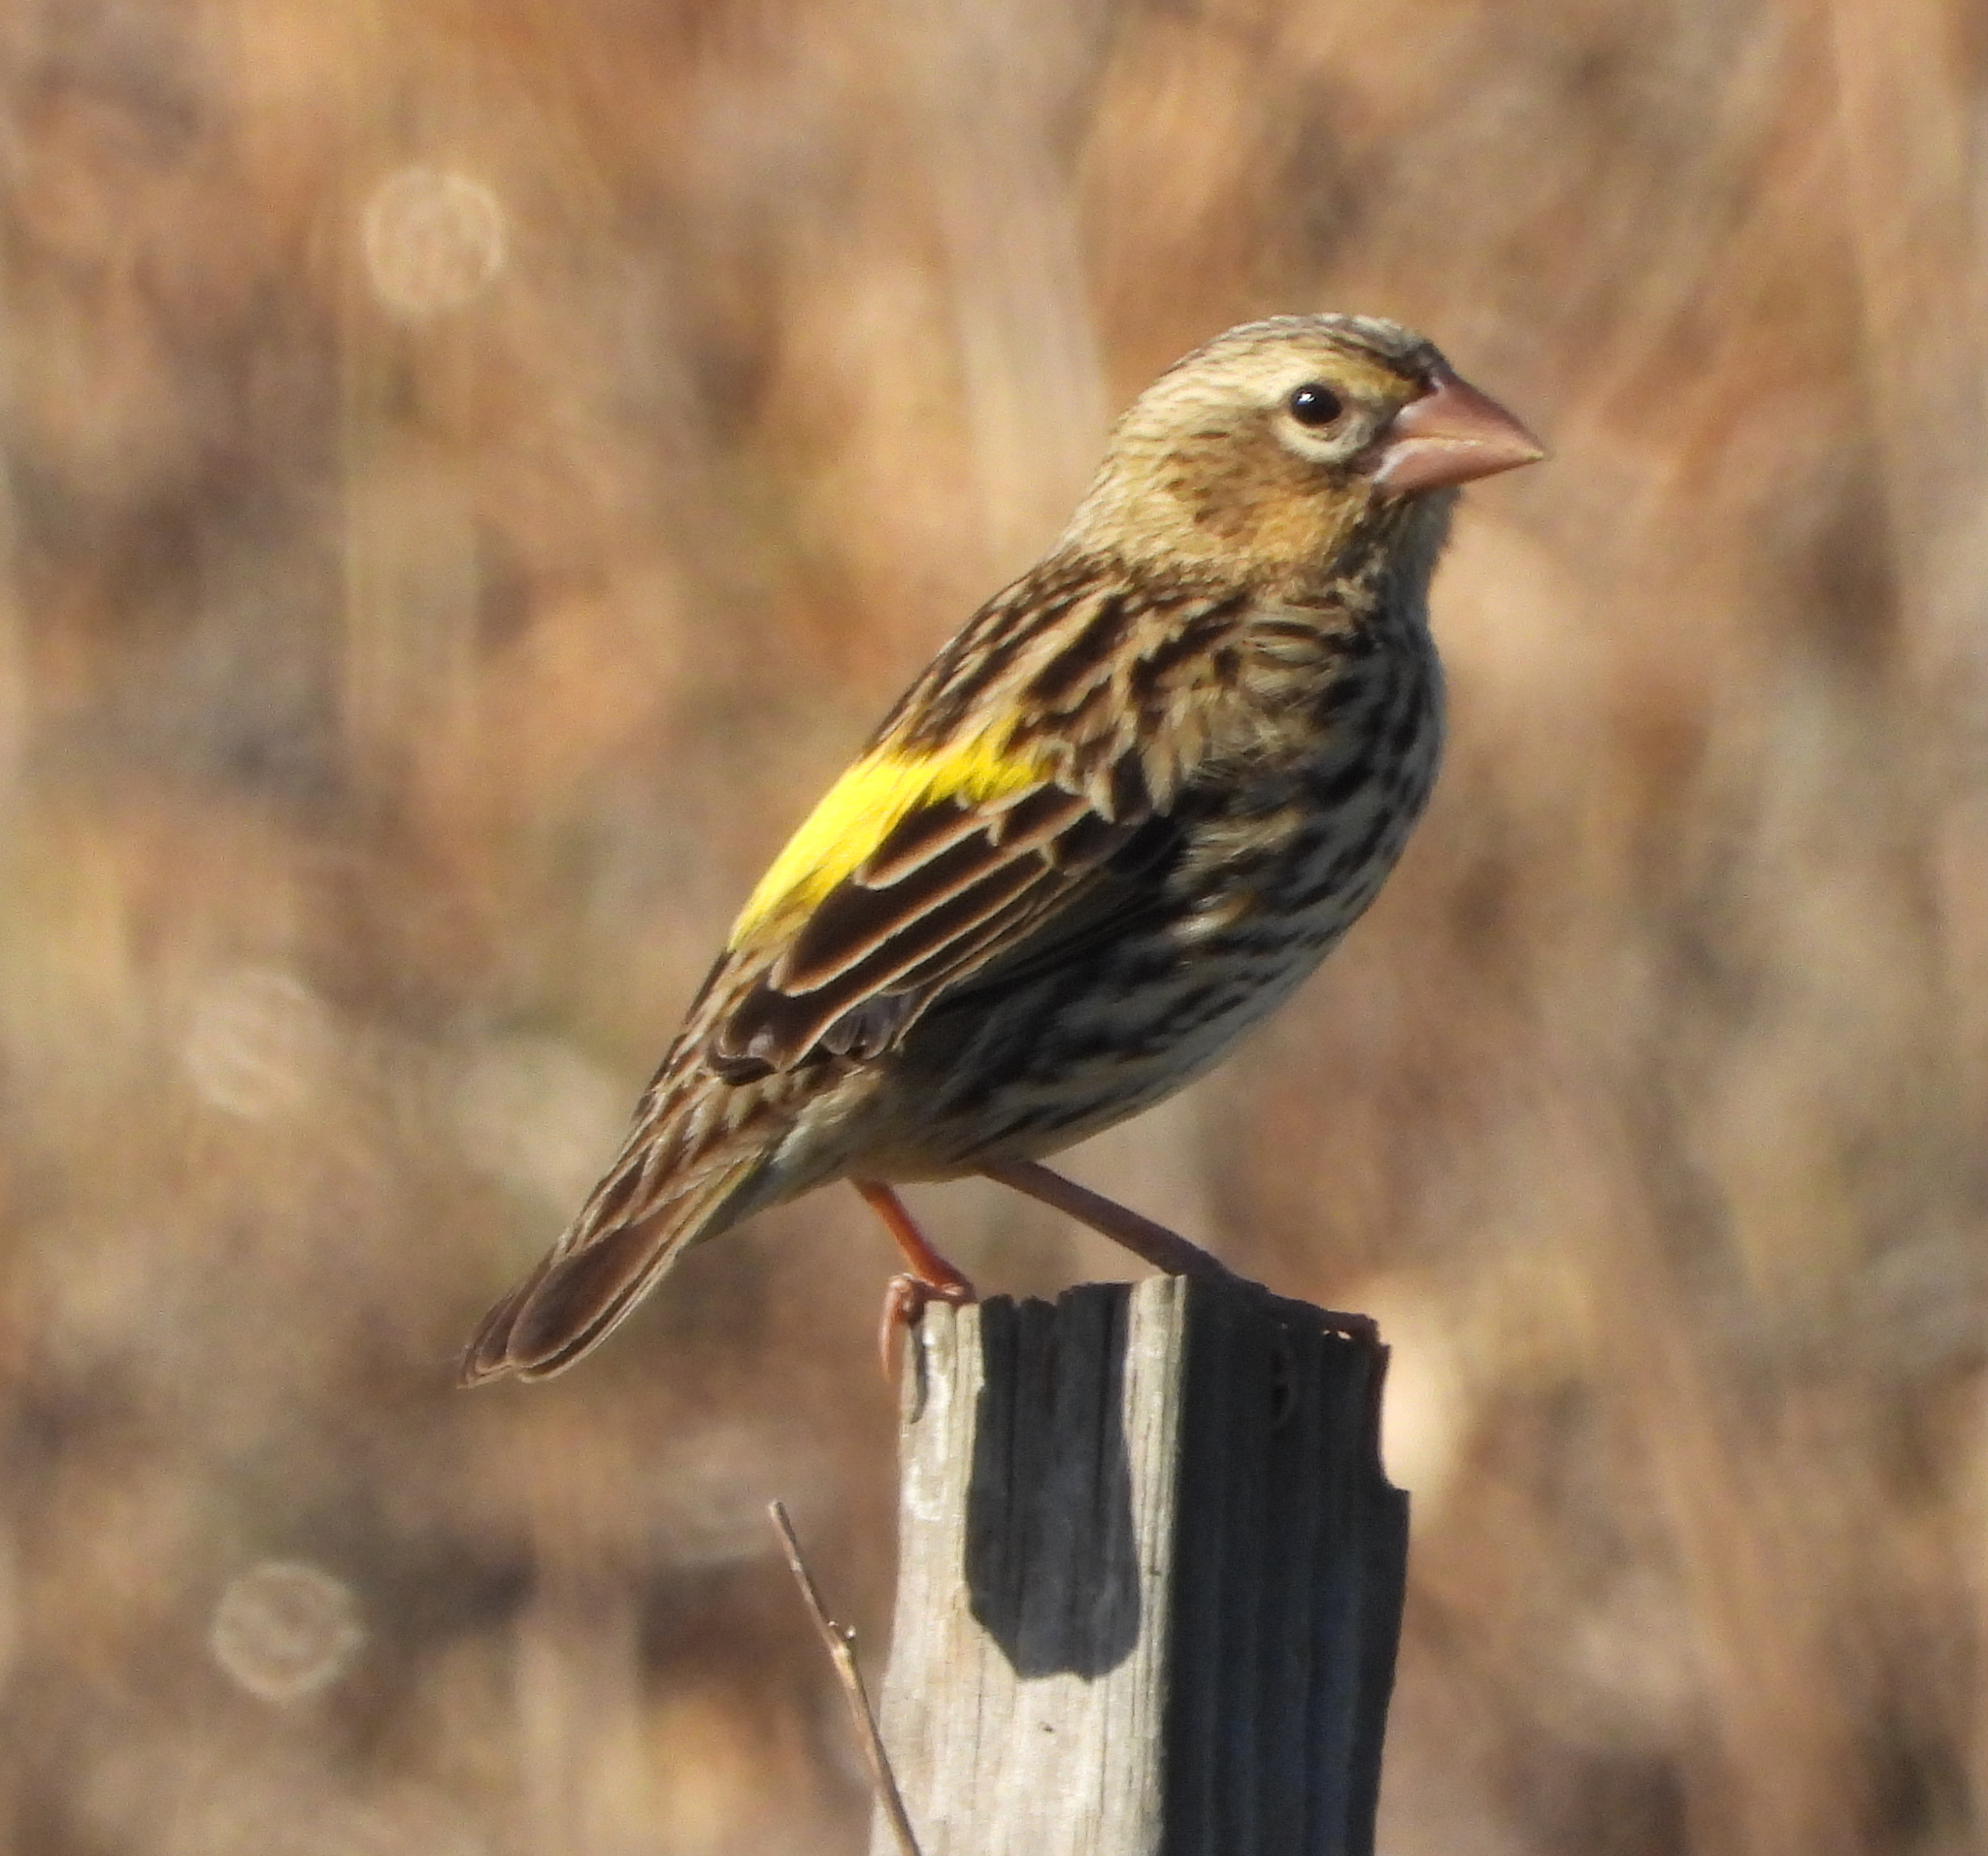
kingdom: Animalia
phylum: Chordata
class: Aves
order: Passeriformes
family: Ploceidae
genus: Euplectes
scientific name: Euplectes capensis
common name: Yellow bishop
